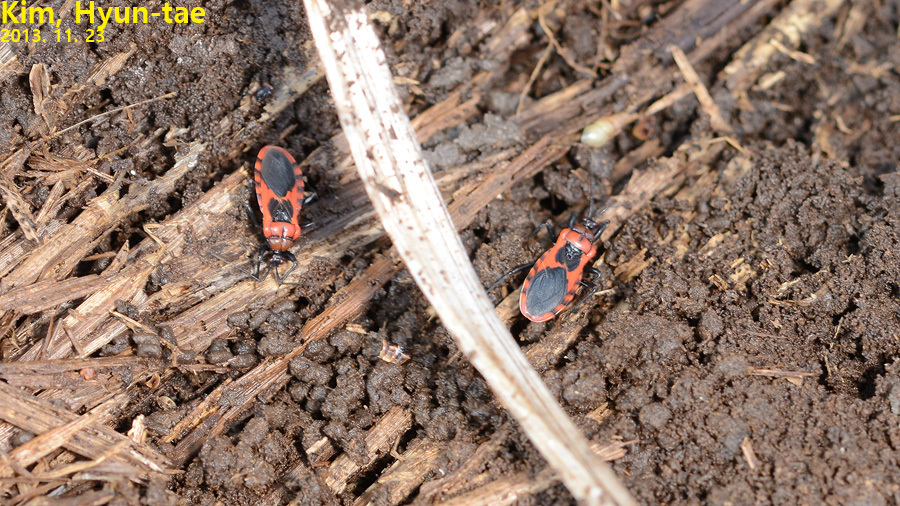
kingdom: Animalia
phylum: Arthropoda
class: Insecta
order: Hemiptera
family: Reduviidae
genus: Haematoloecha
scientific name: Haematoloecha nigrorufa
